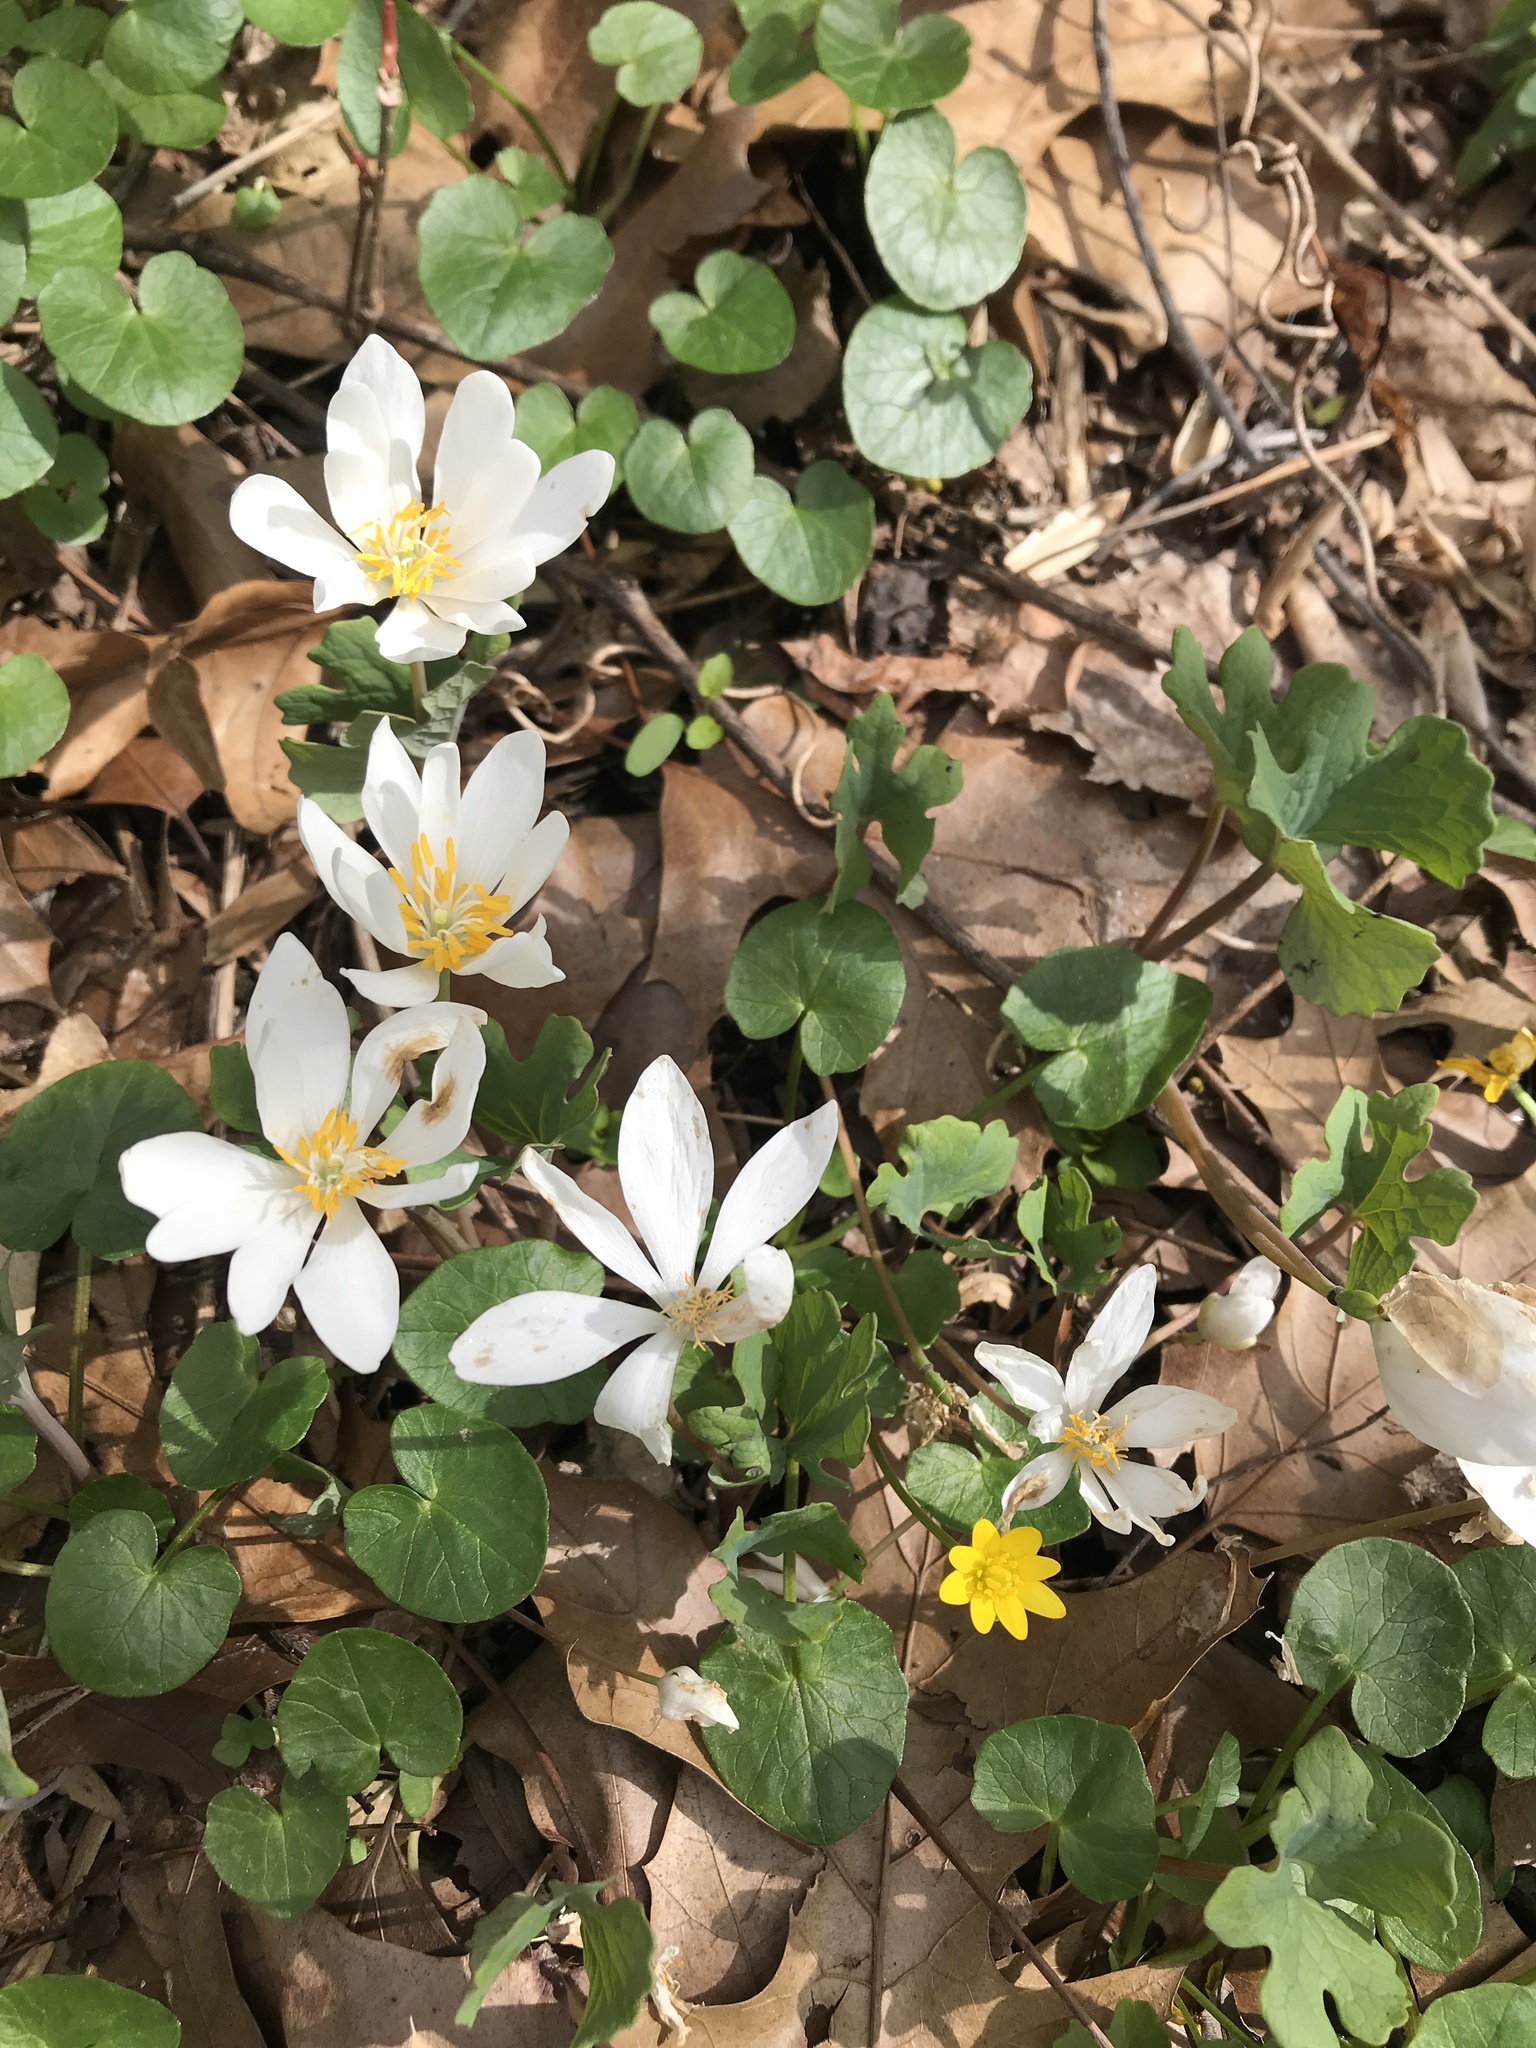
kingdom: Plantae
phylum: Tracheophyta
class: Magnoliopsida
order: Ranunculales
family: Papaveraceae
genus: Sanguinaria
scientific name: Sanguinaria canadensis
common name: Bloodroot
